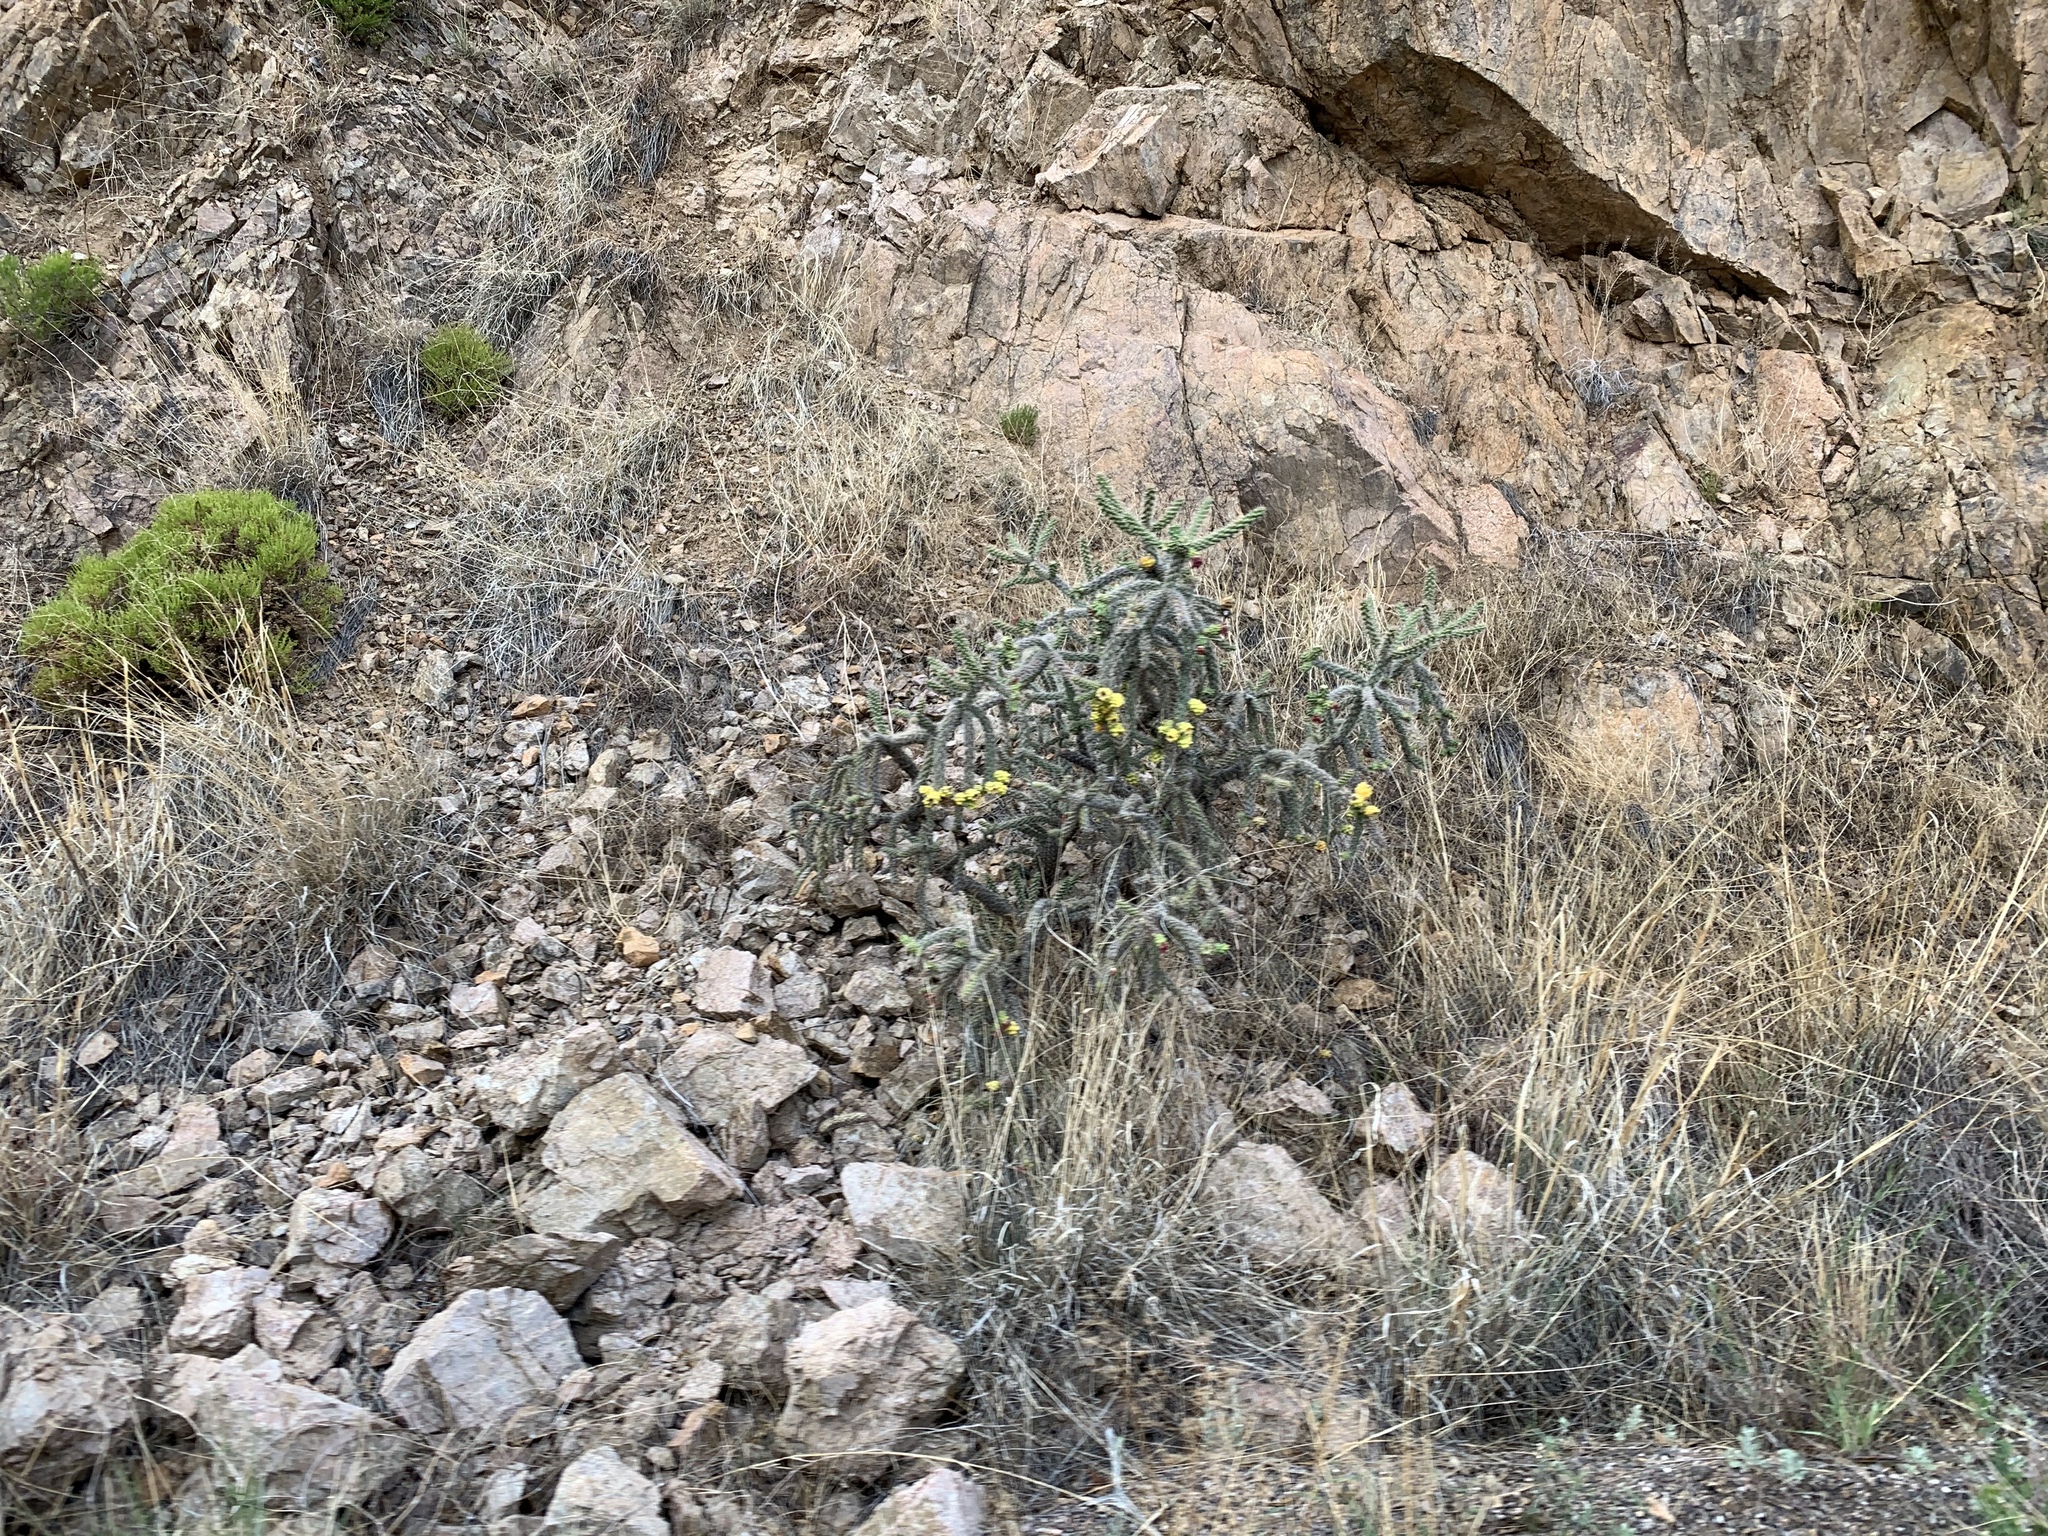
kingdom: Plantae
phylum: Tracheophyta
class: Magnoliopsida
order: Caryophyllales
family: Cactaceae
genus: Cylindropuntia
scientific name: Cylindropuntia imbricata
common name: Candelabrum cactus
